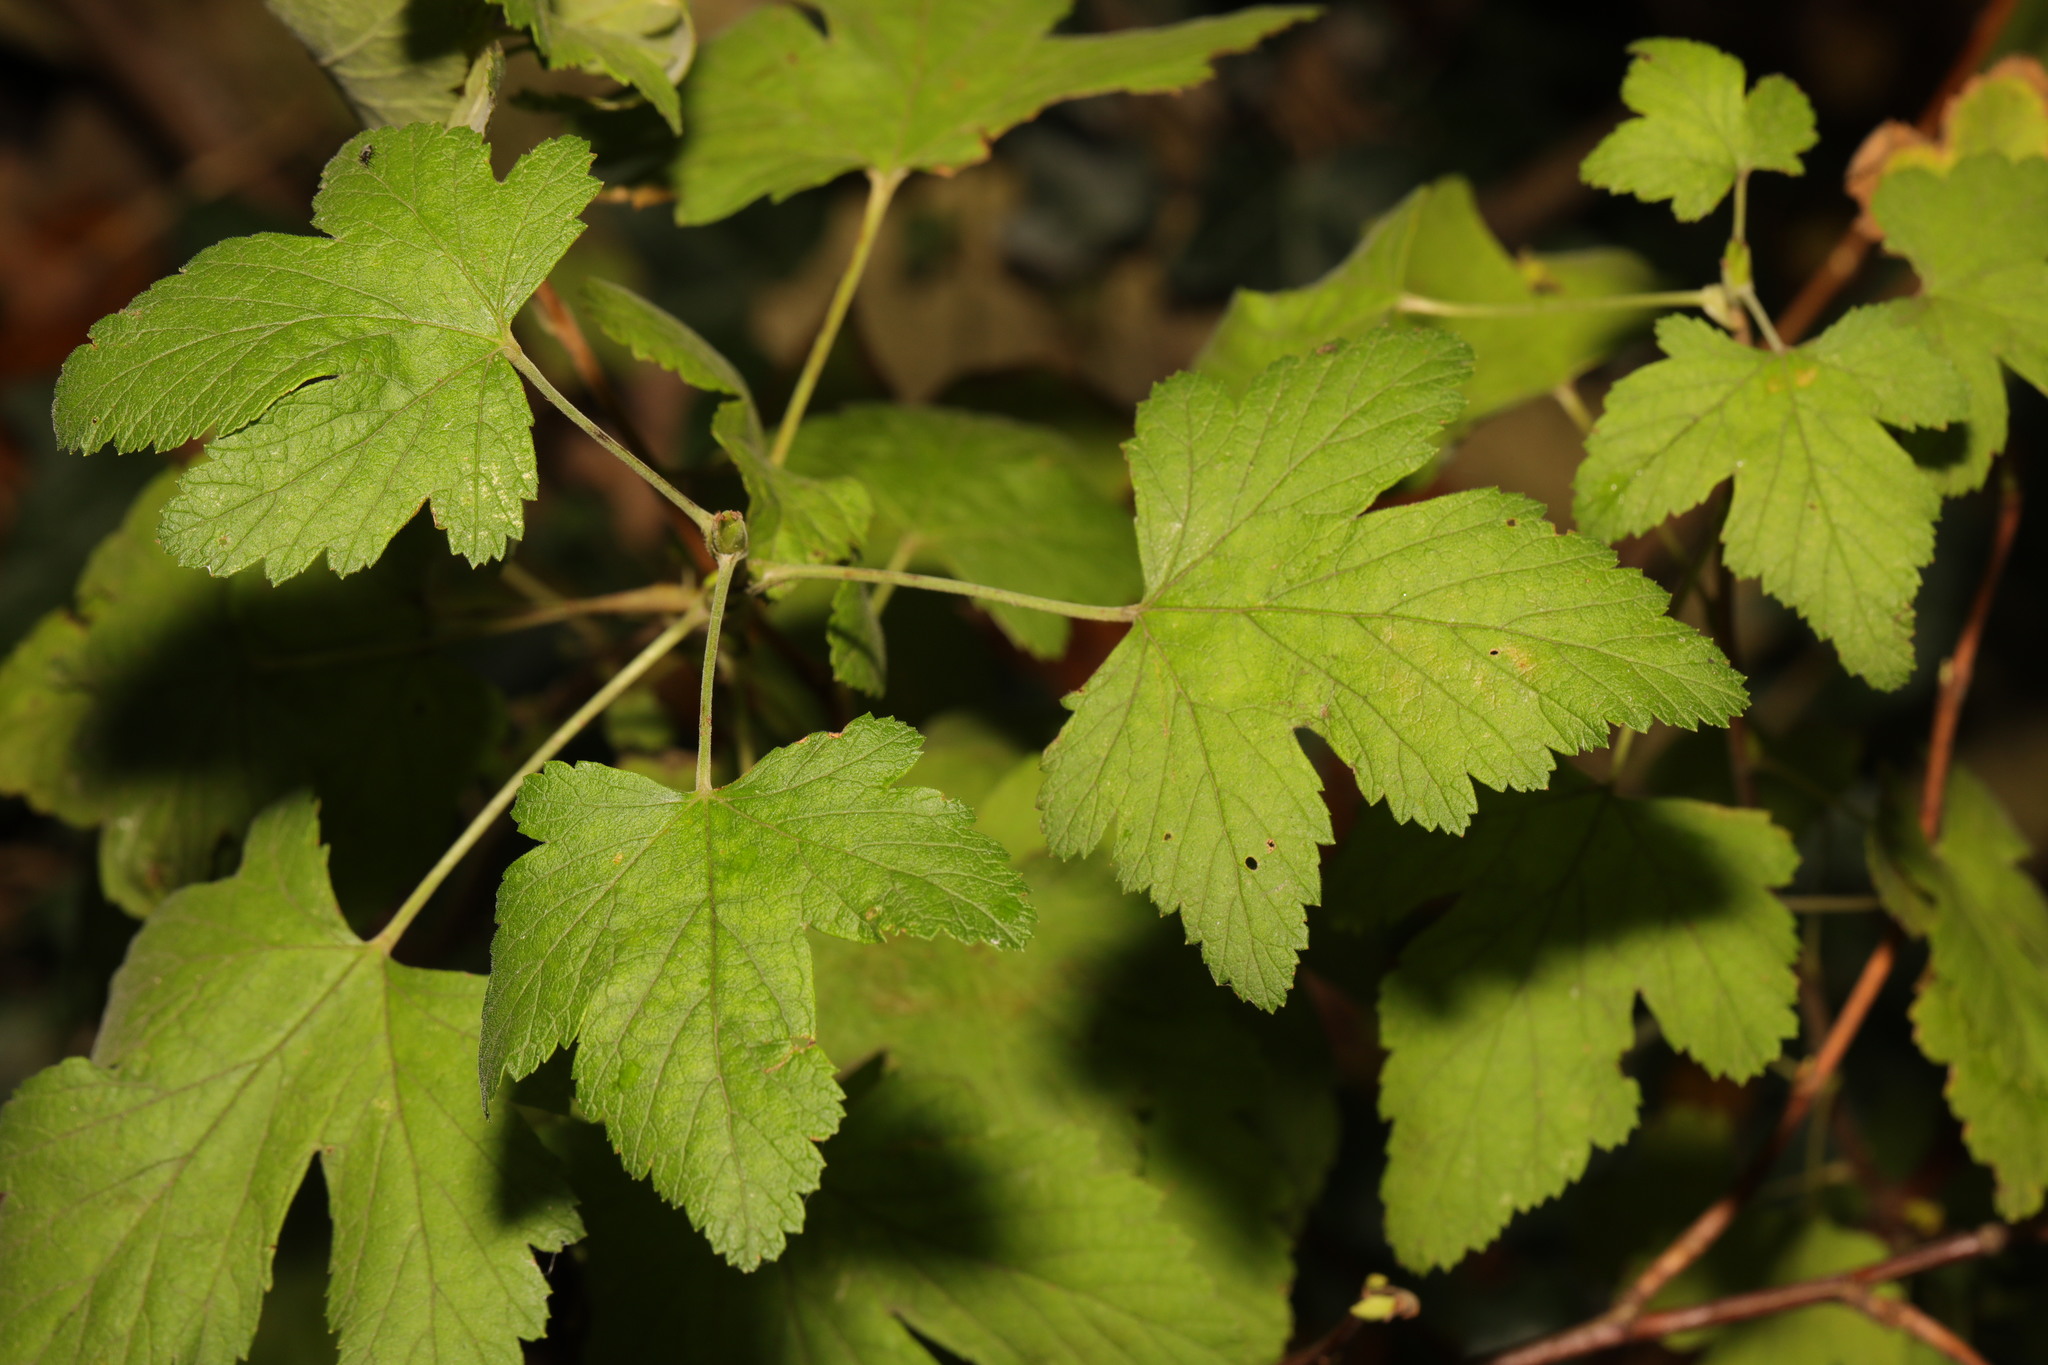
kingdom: Plantae
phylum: Tracheophyta
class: Magnoliopsida
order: Saxifragales
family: Grossulariaceae
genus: Ribes
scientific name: Ribes nigrum
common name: Black currant
